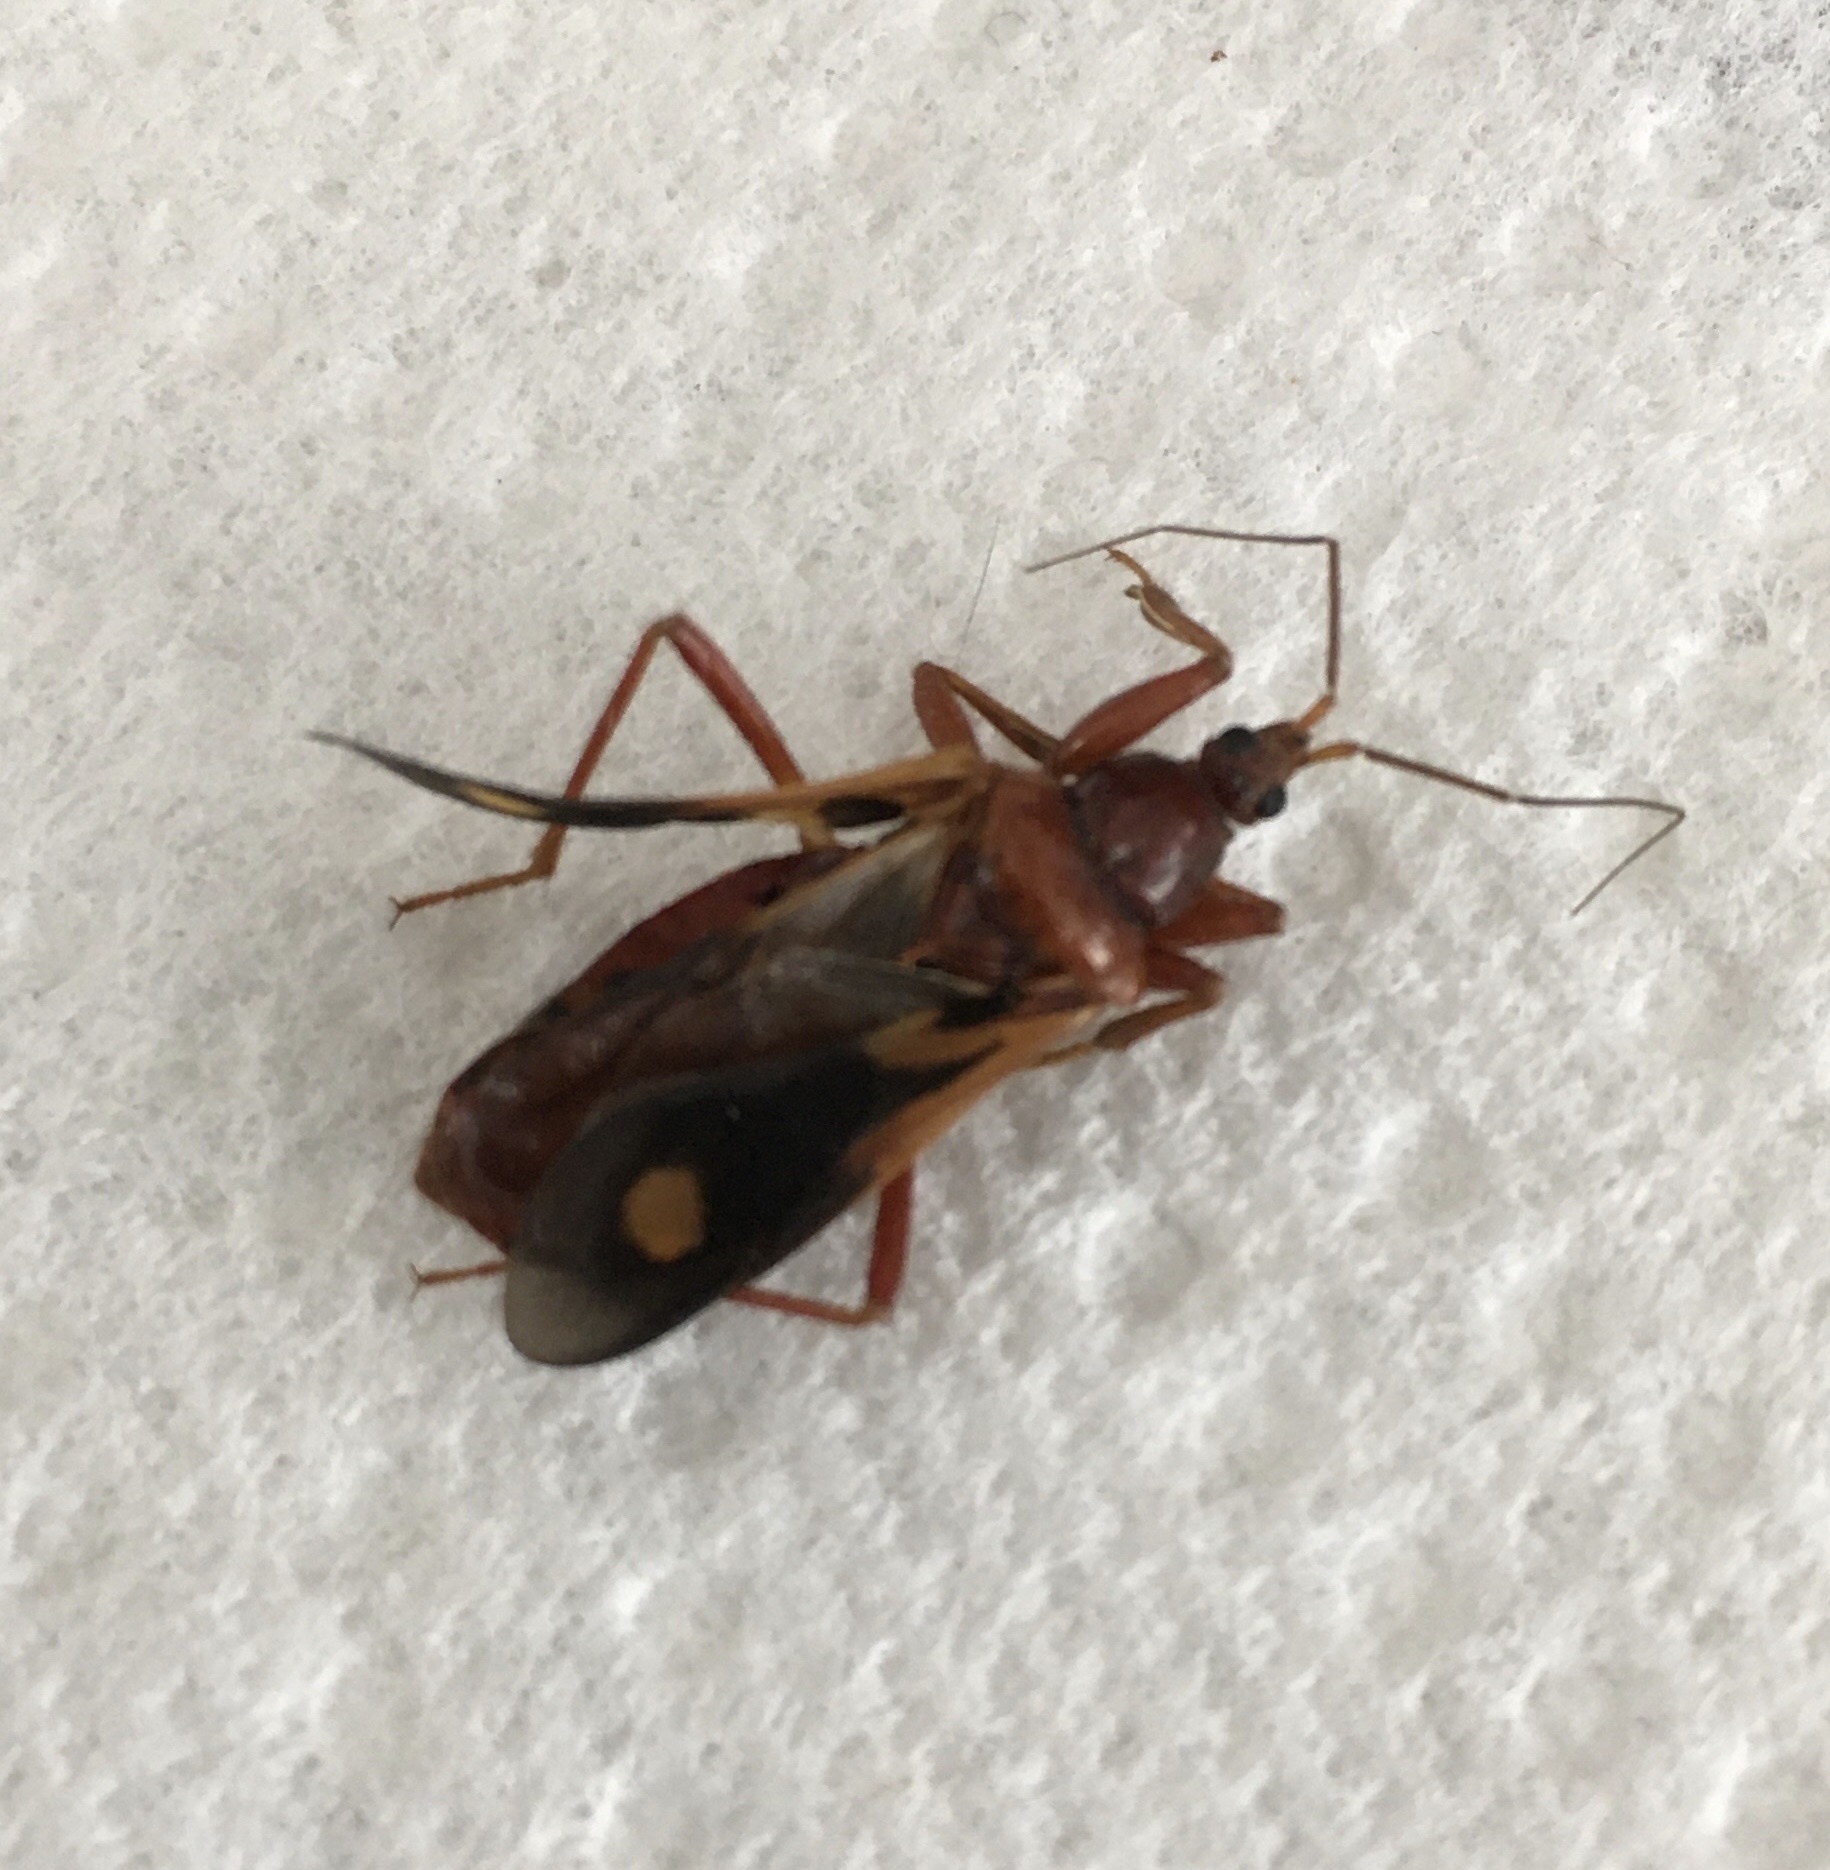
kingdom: Animalia
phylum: Arthropoda
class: Insecta
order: Hemiptera
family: Reduviidae
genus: Rasahus
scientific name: Rasahus thoracicus
